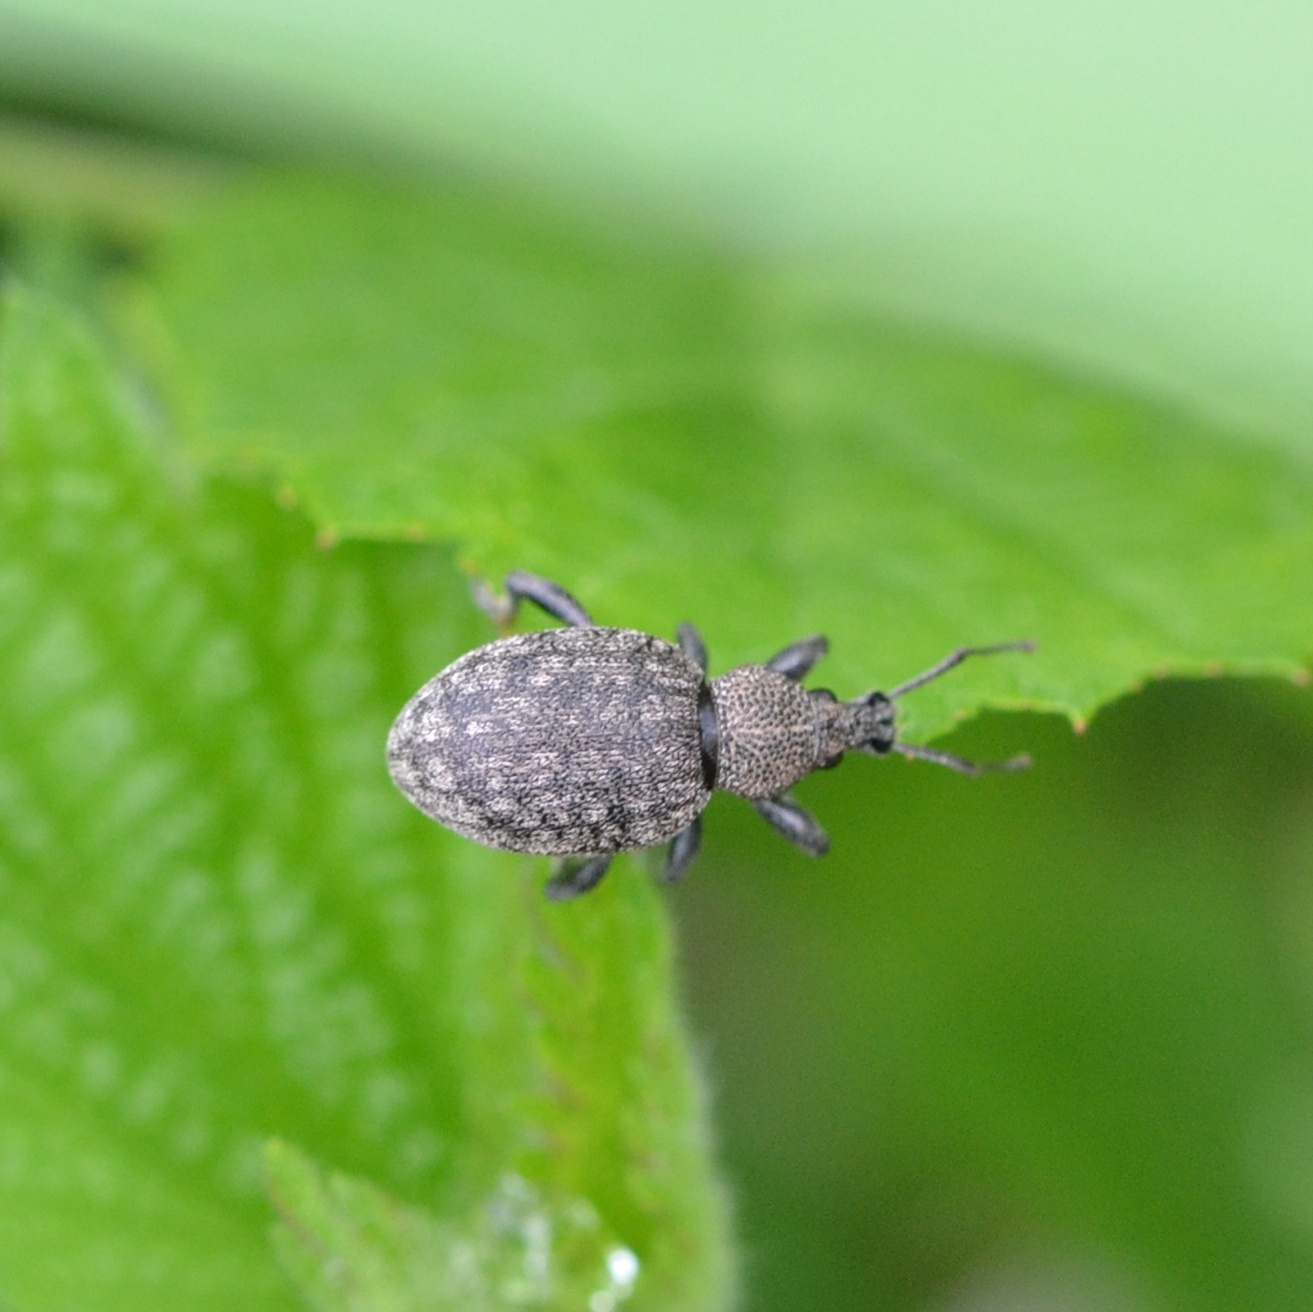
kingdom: Animalia
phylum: Arthropoda
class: Insecta
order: Coleoptera
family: Curculionidae
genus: Otiorhynchus
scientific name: Otiorhynchus ligustici
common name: Weevil
